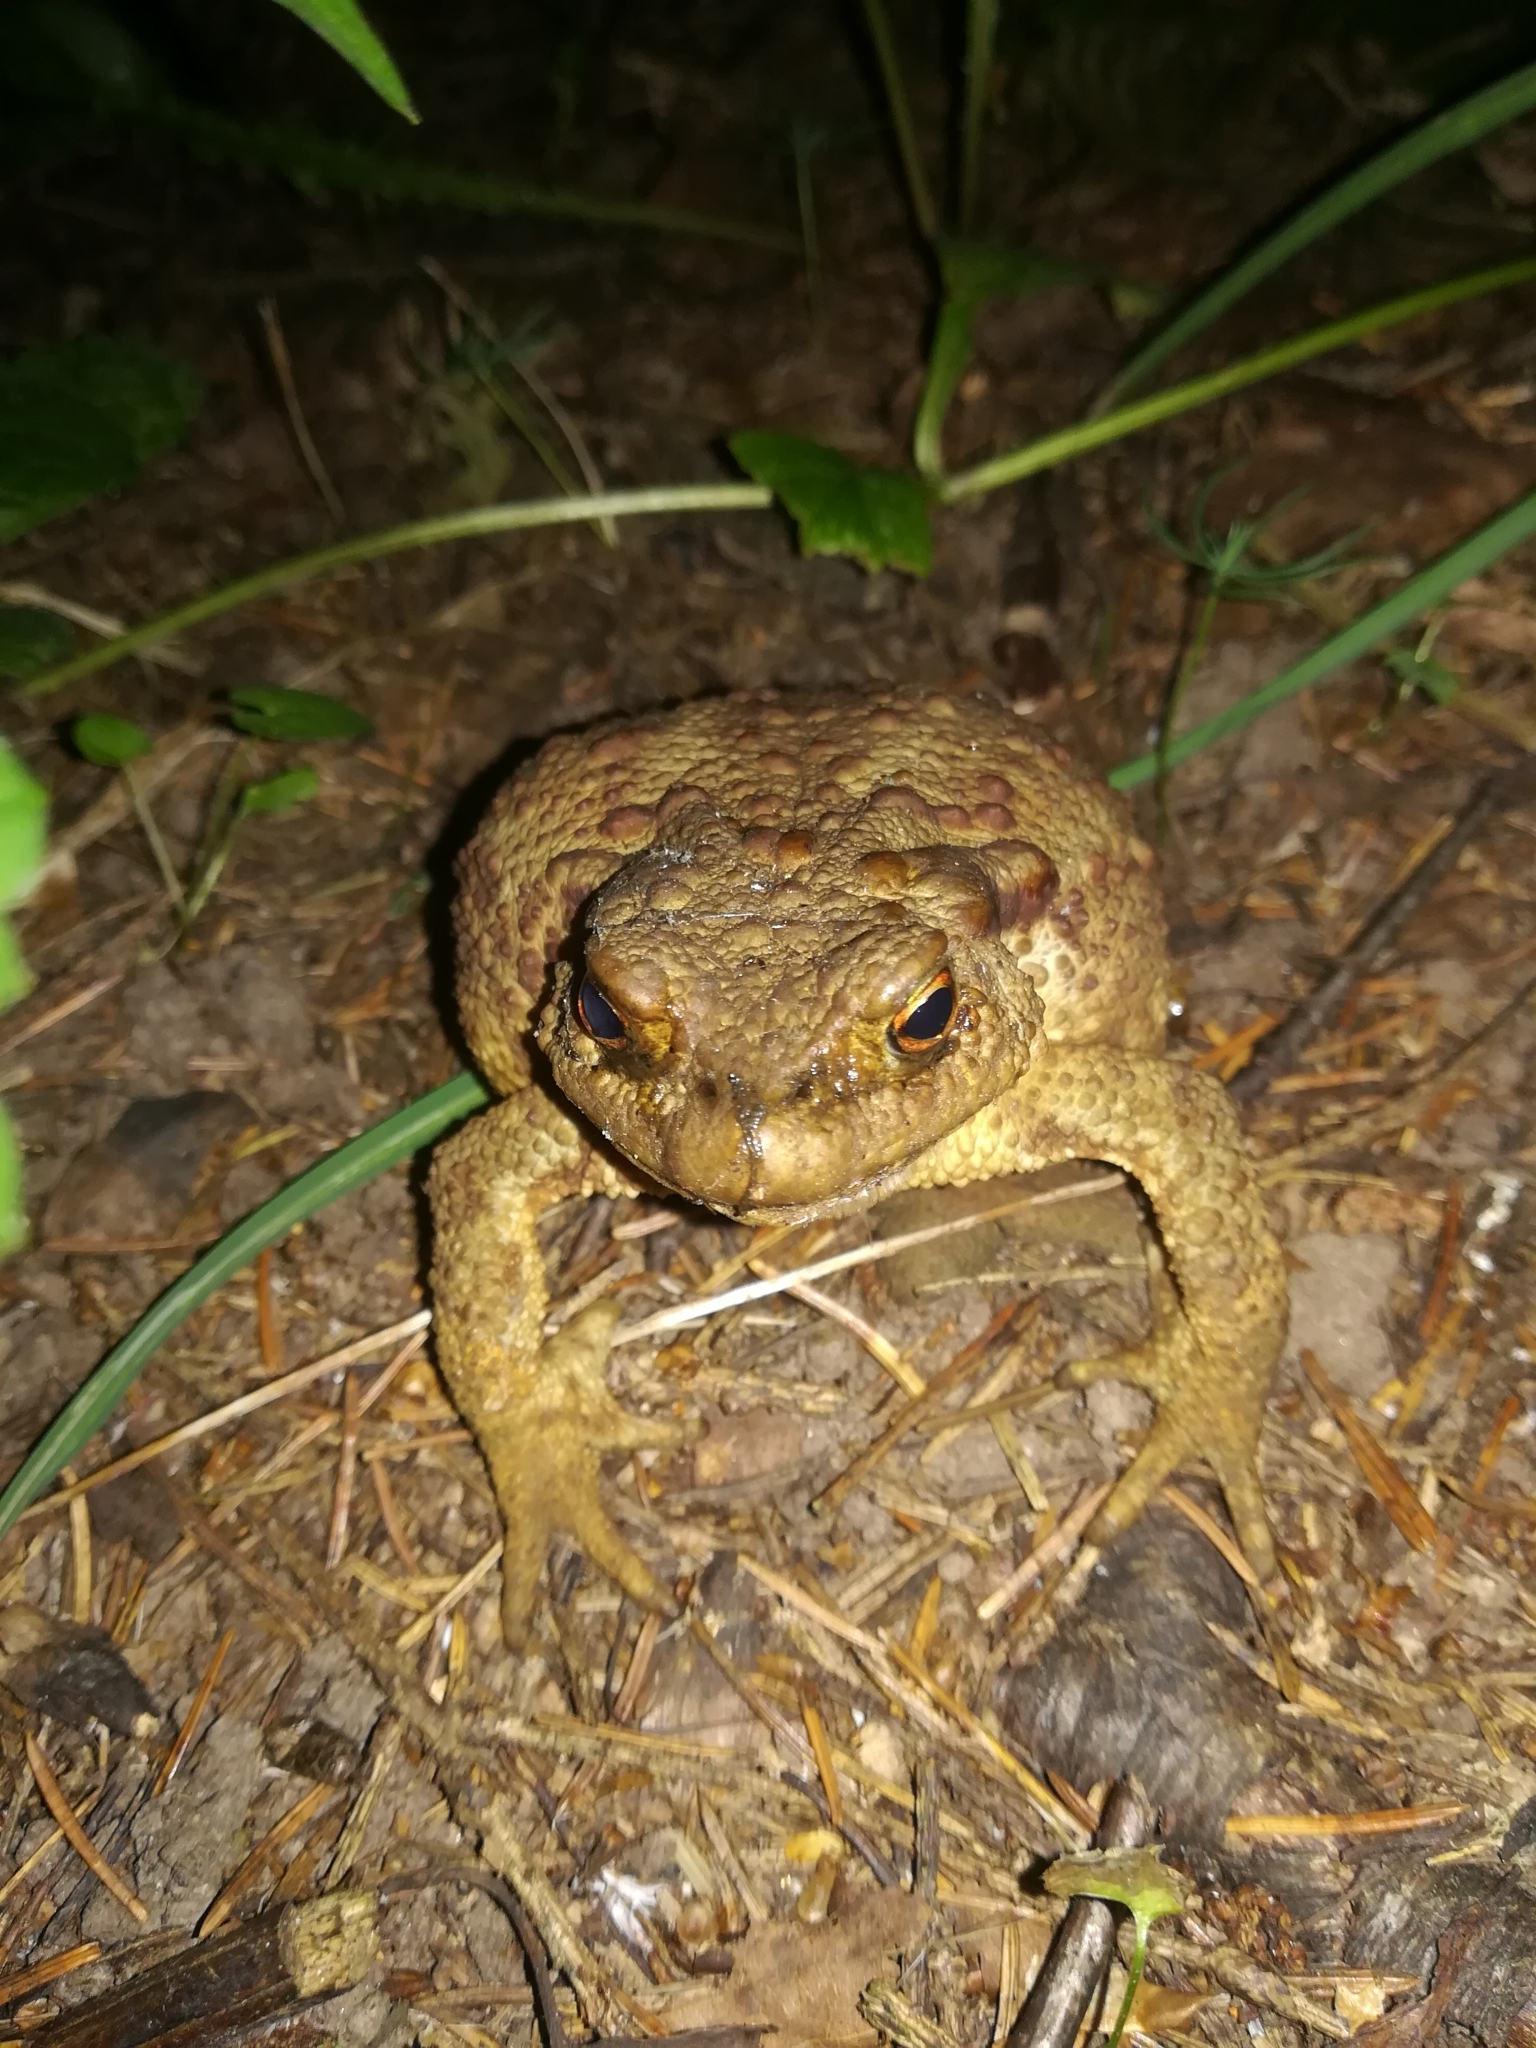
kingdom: Animalia
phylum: Chordata
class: Amphibia
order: Anura
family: Bufonidae
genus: Bufo
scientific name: Bufo bufo
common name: Common toad
